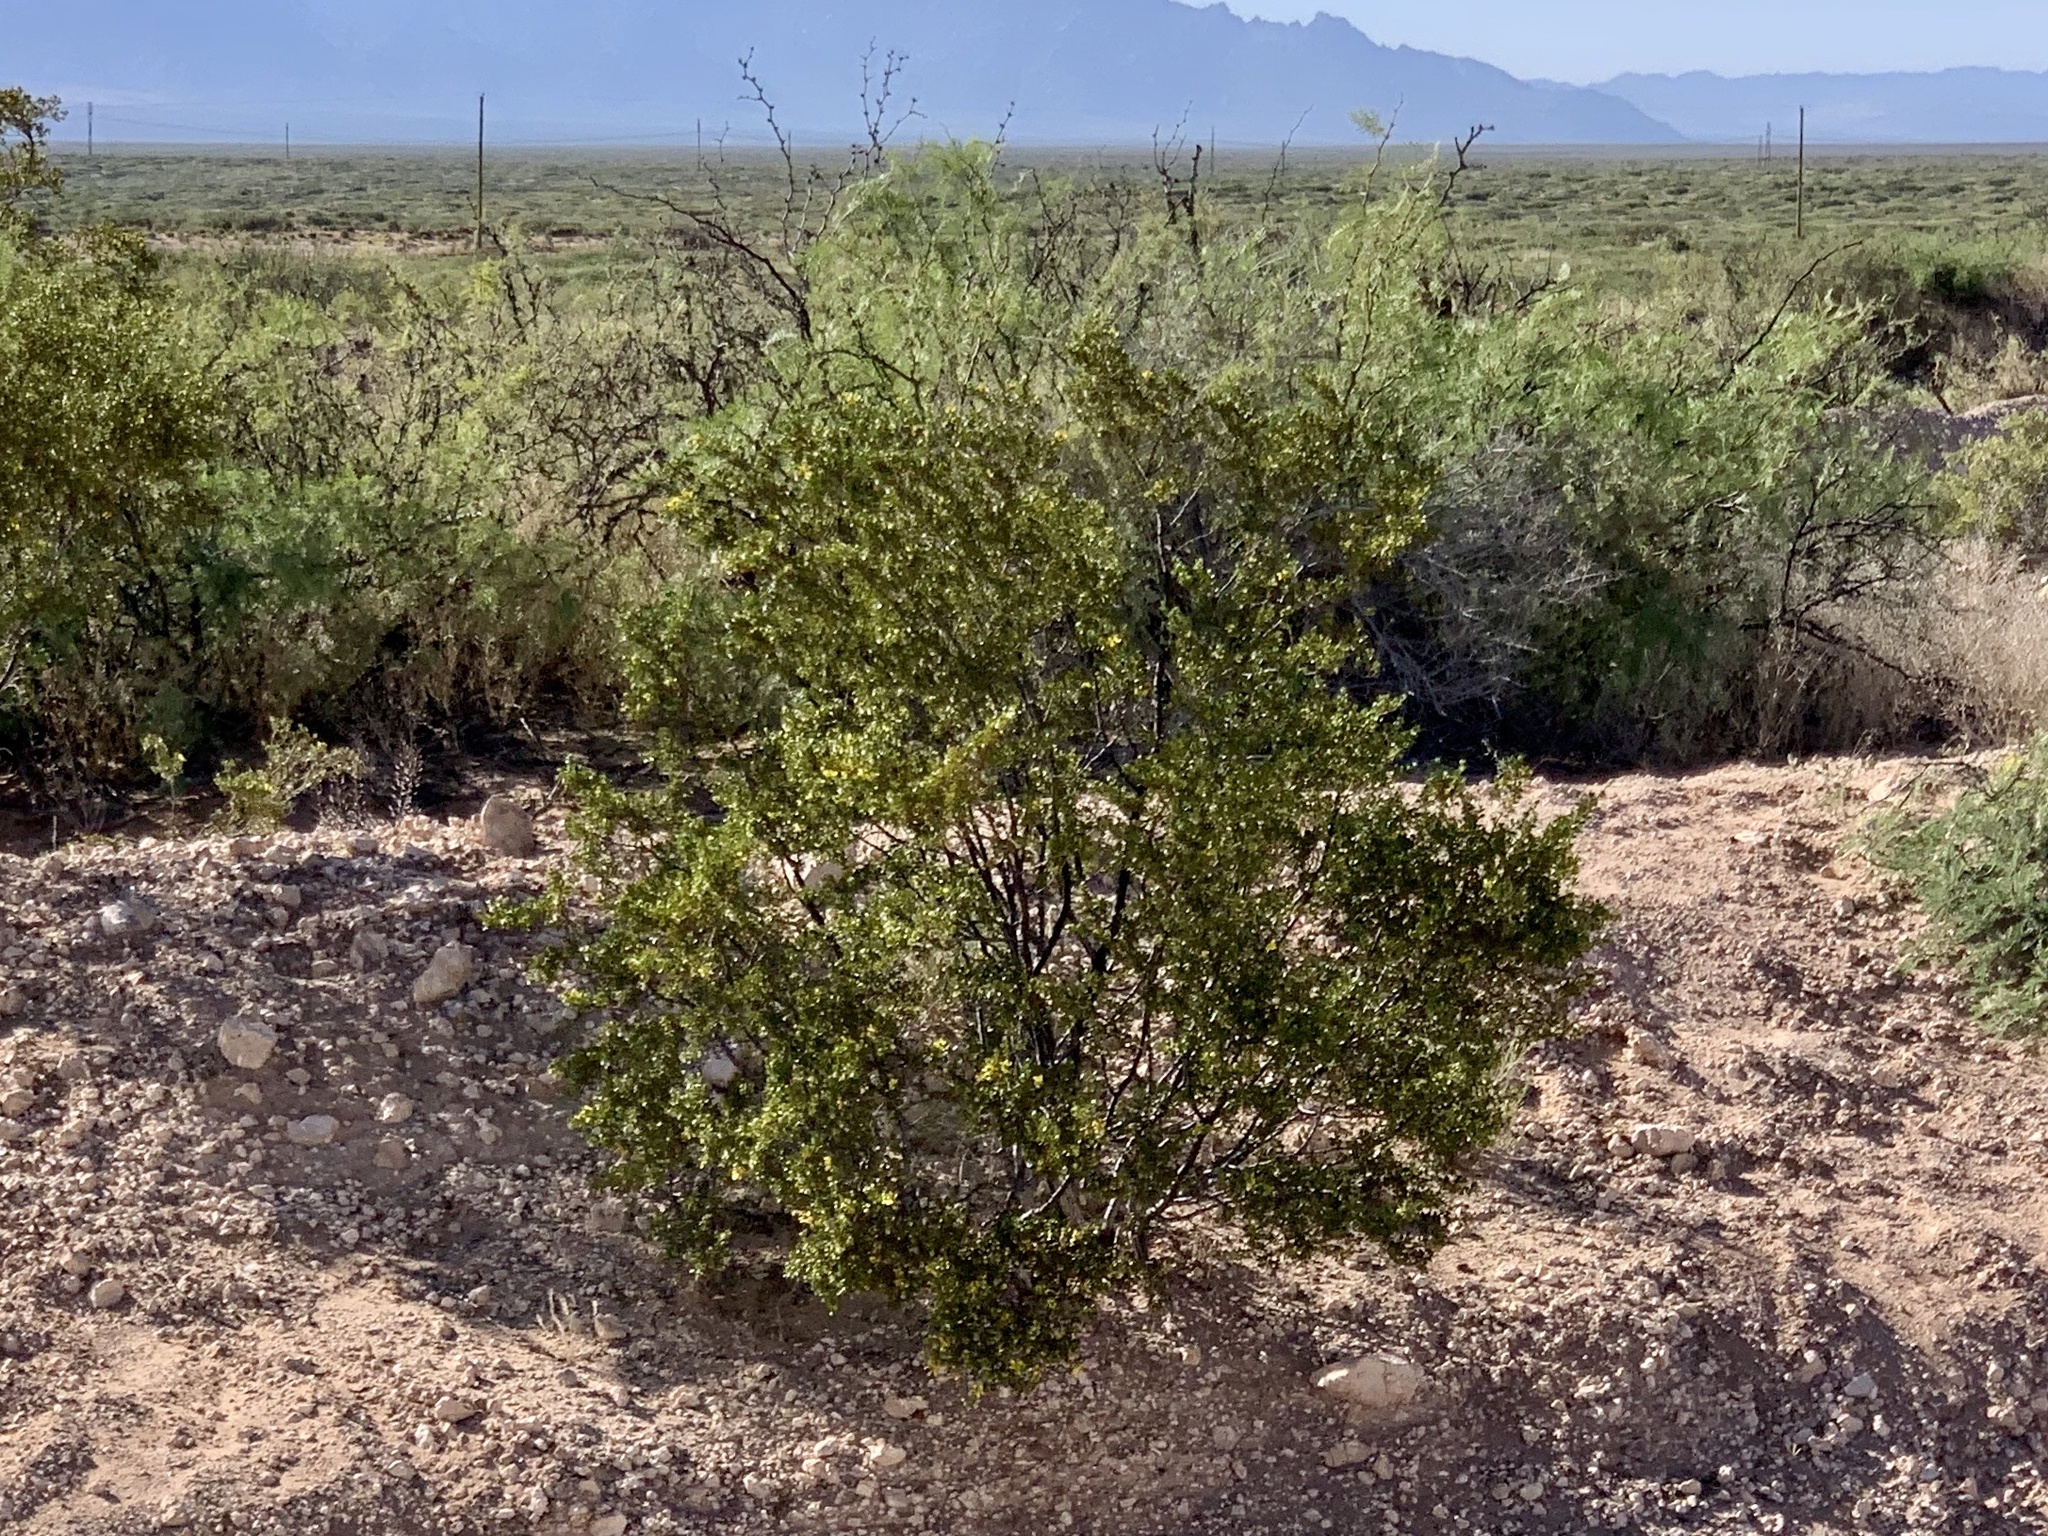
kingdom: Plantae
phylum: Tracheophyta
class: Magnoliopsida
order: Zygophyllales
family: Zygophyllaceae
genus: Larrea
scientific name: Larrea tridentata
